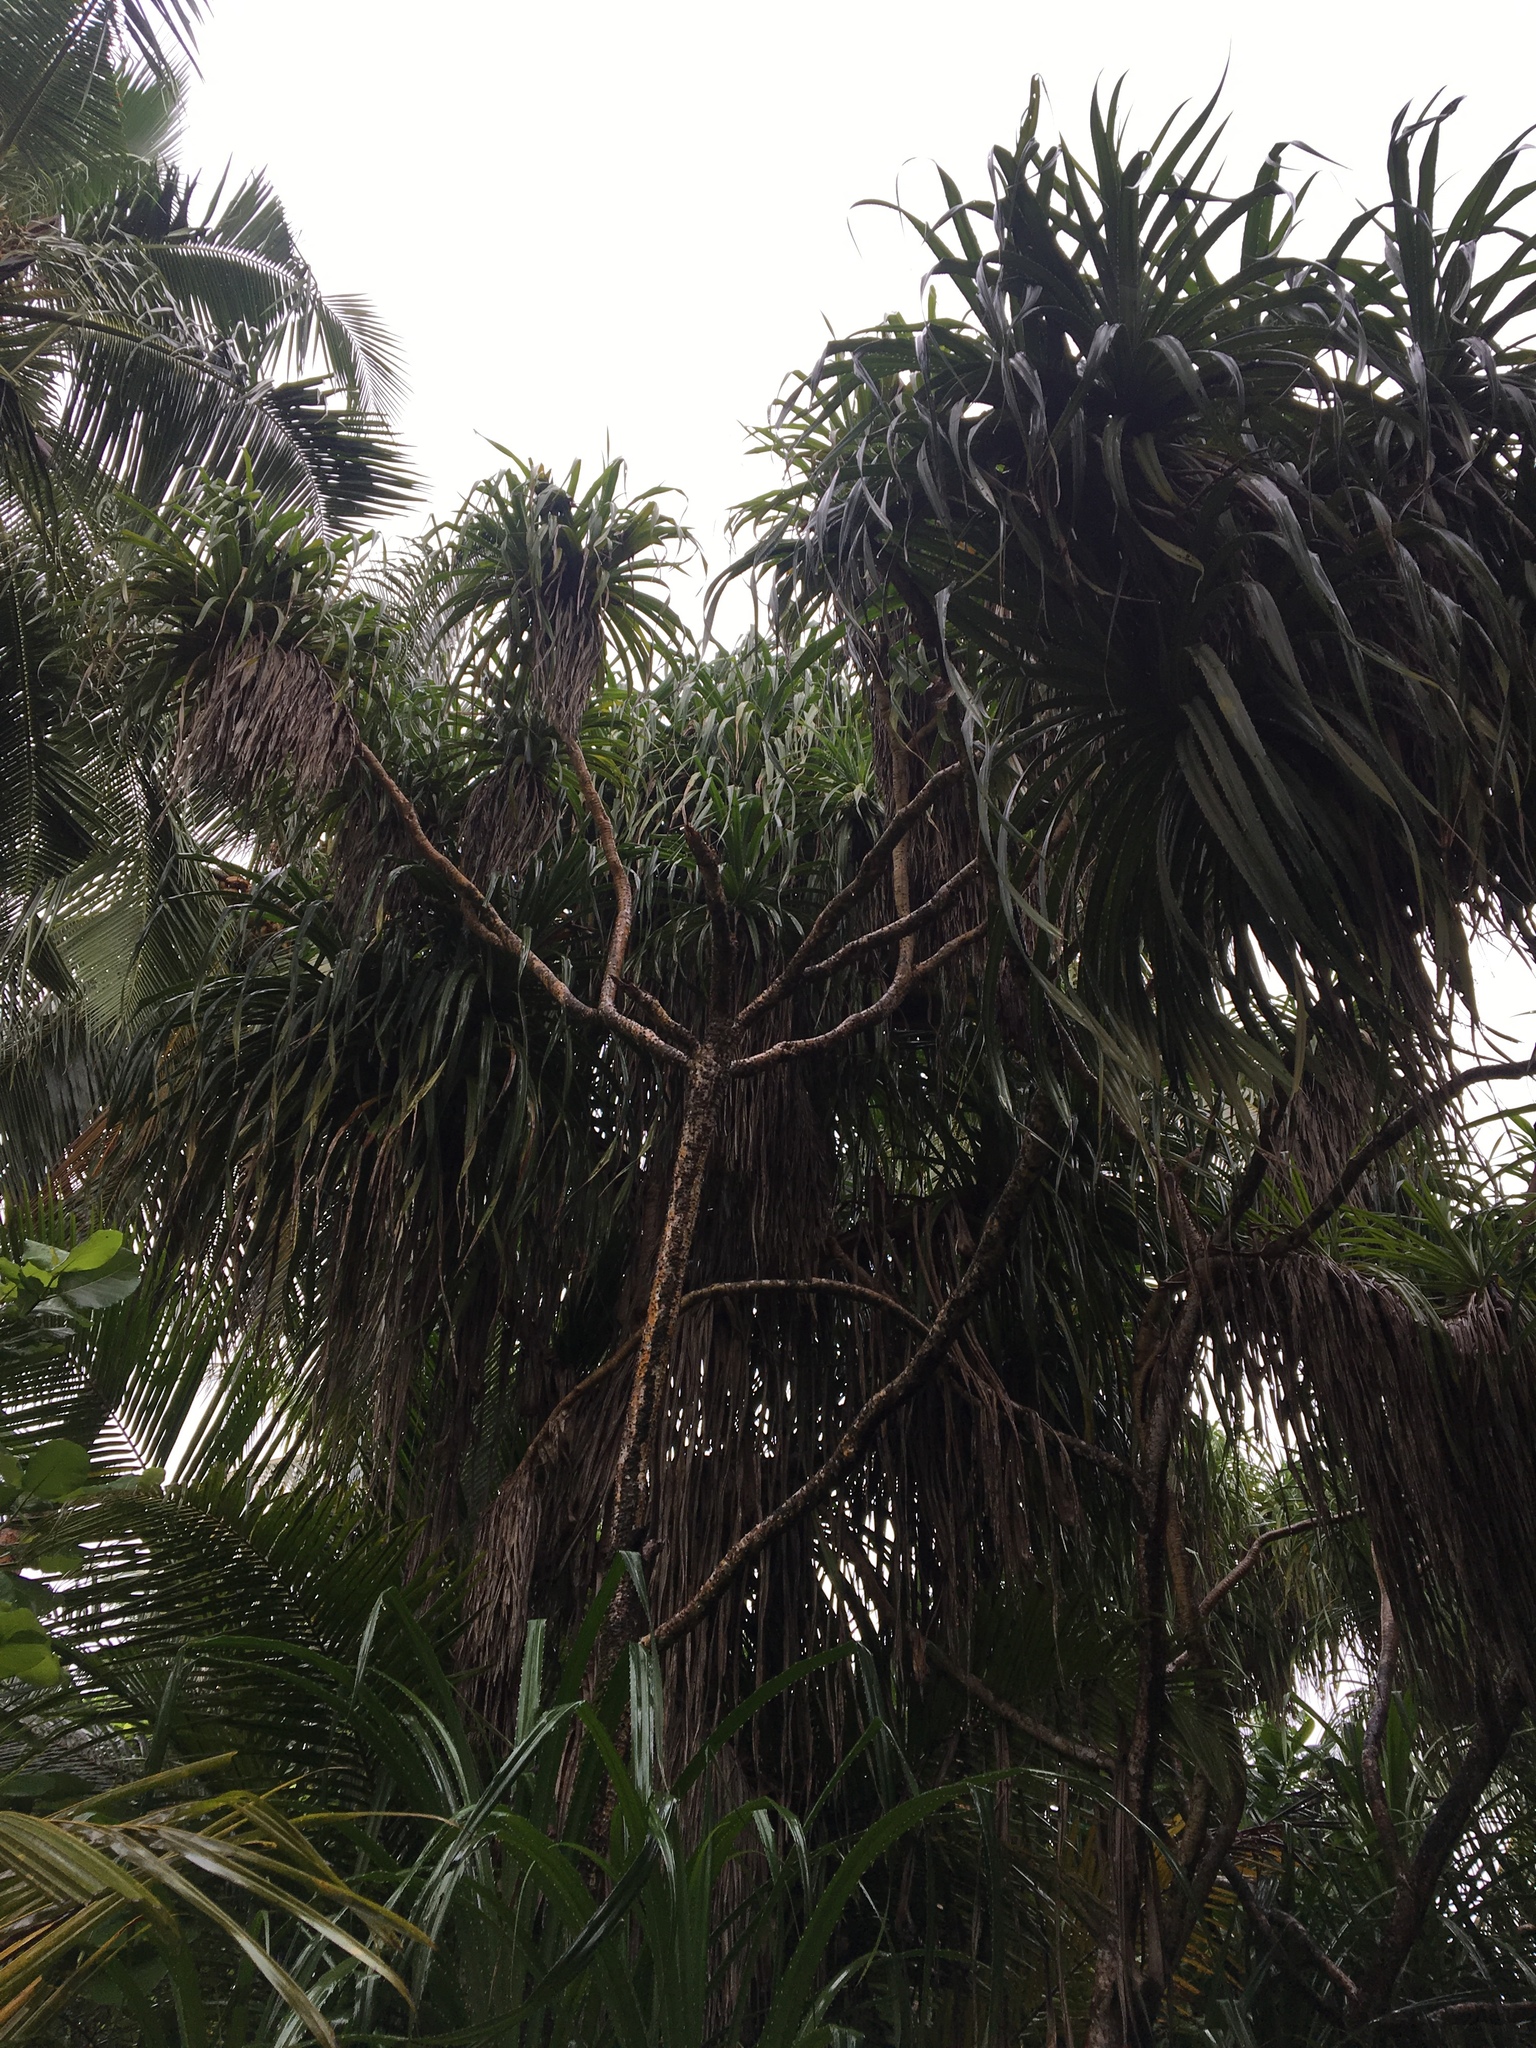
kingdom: Plantae
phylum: Tracheophyta
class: Liliopsida
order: Pandanales
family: Pandanaceae
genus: Pandanus
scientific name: Pandanus odorifer
